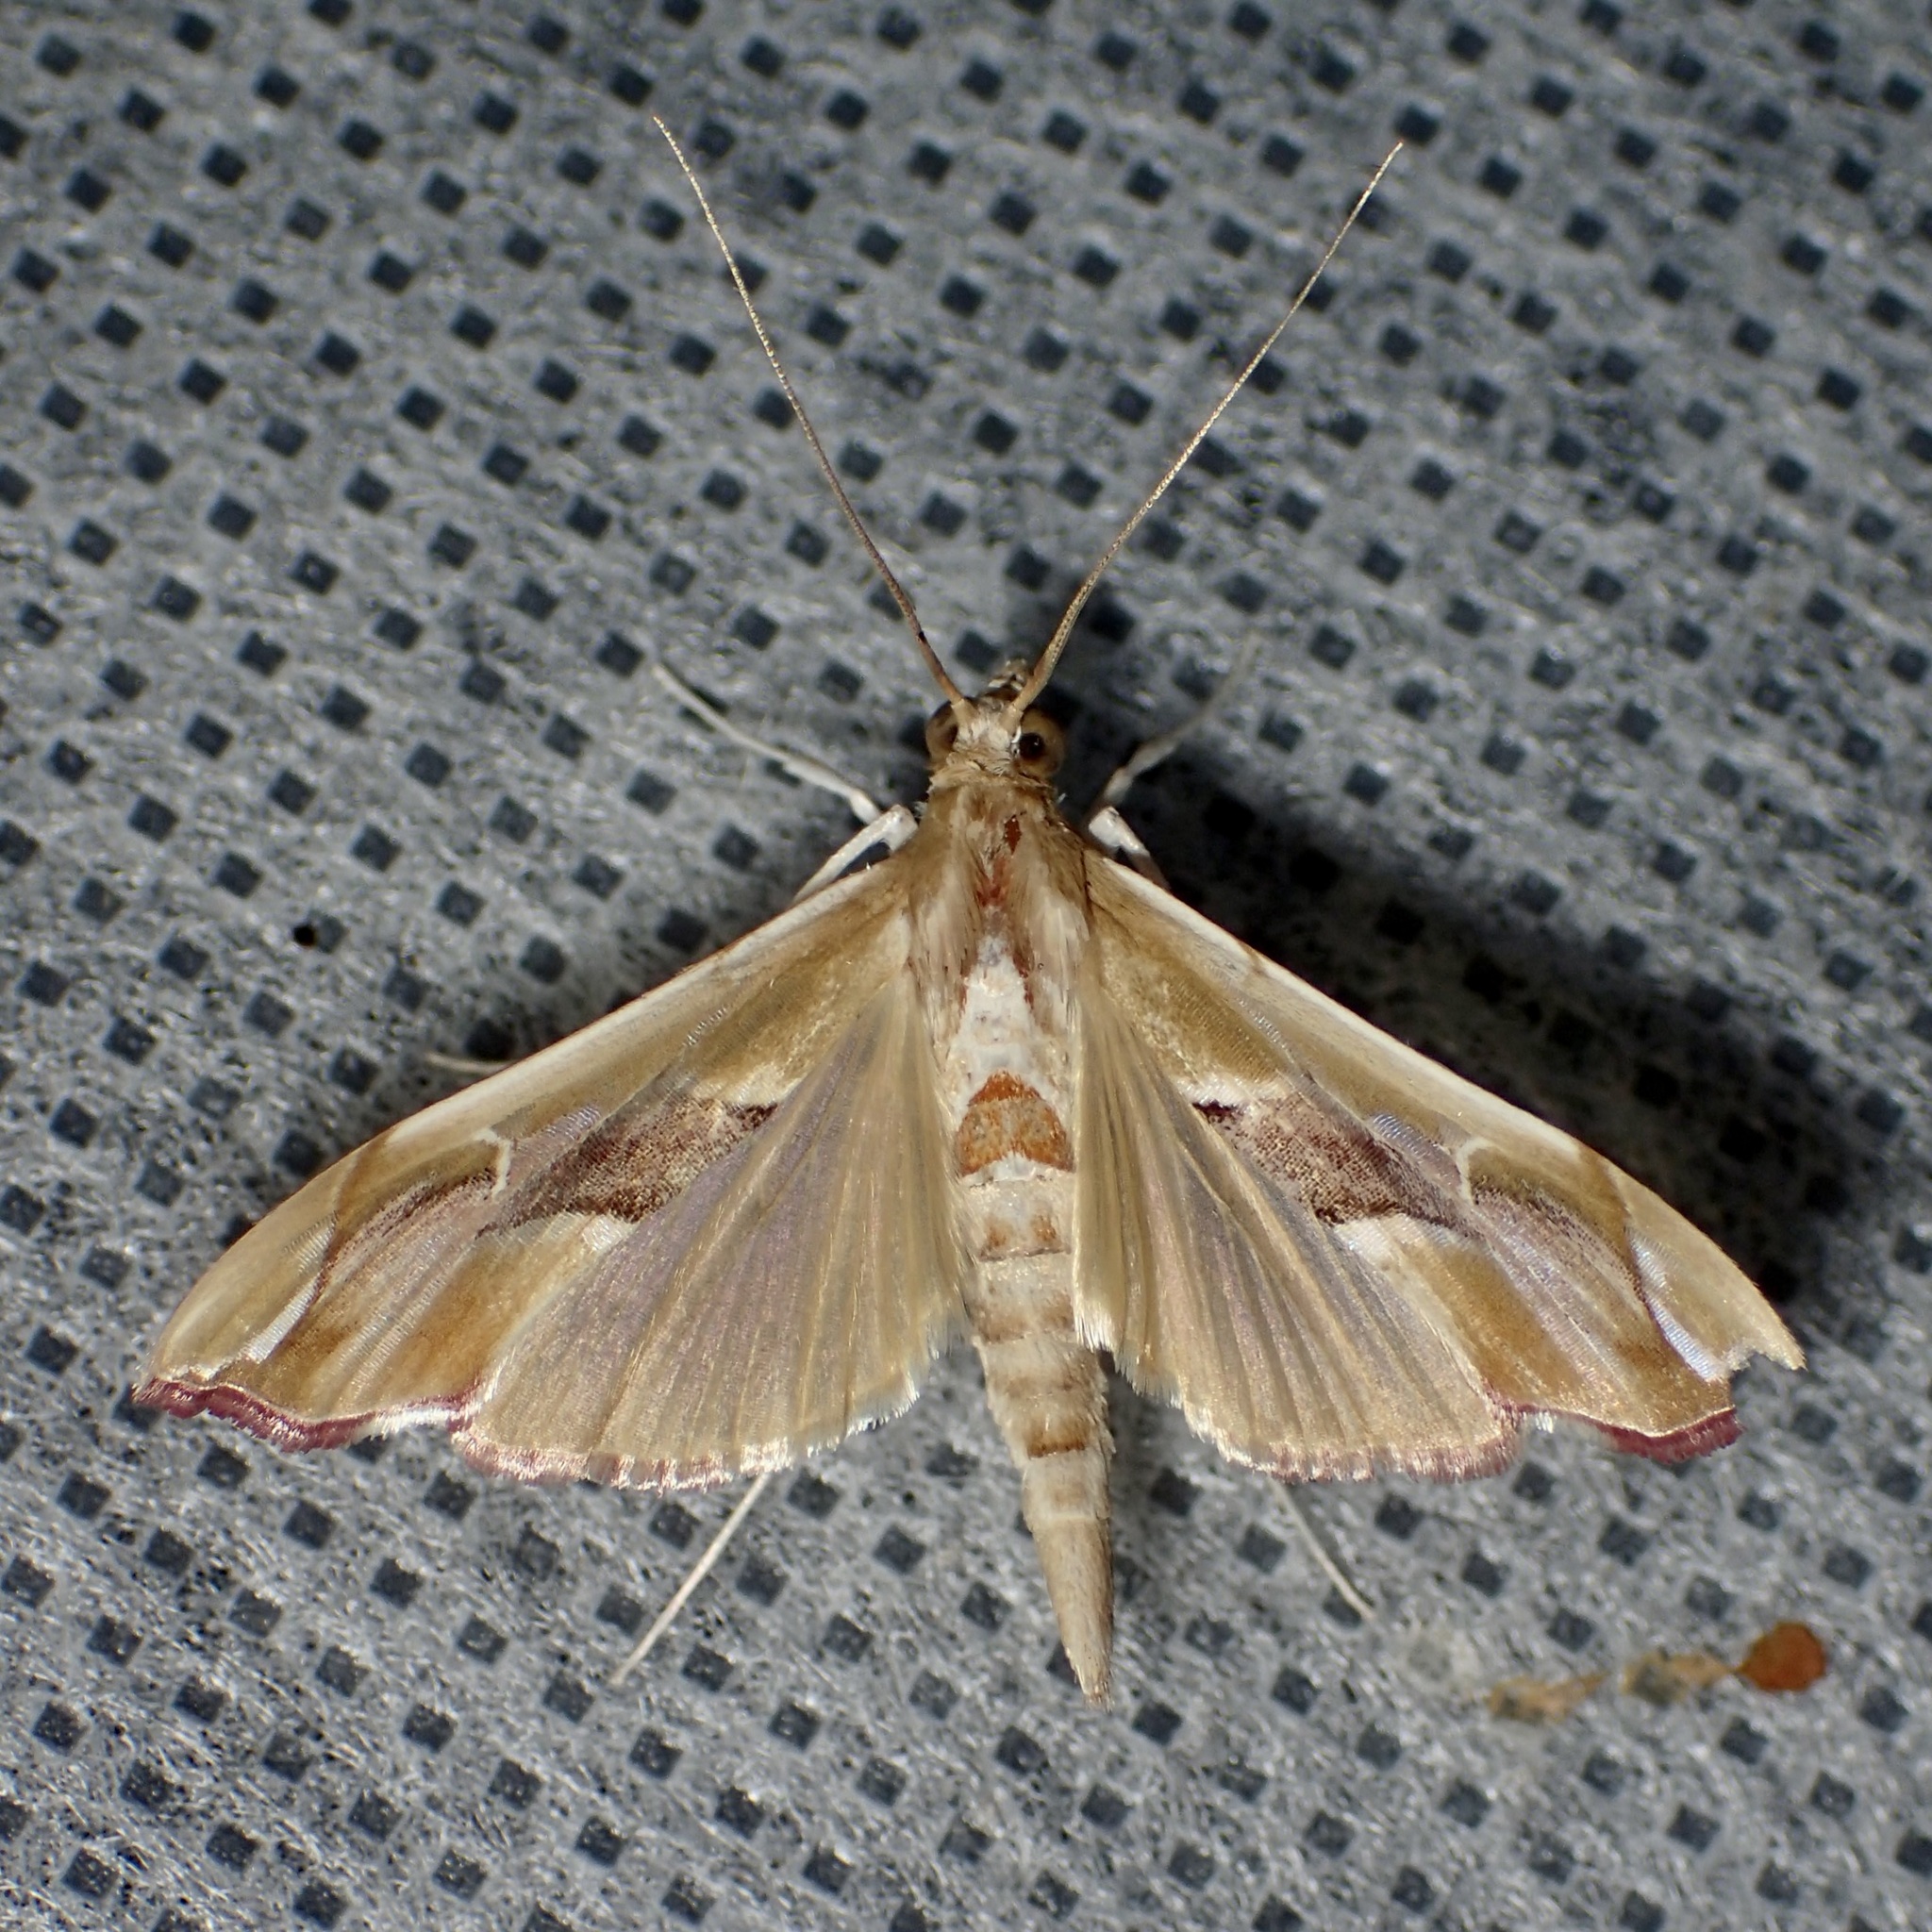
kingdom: Animalia
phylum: Arthropoda
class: Insecta
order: Lepidoptera
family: Crambidae
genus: Agathodes
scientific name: Agathodes monstralis
